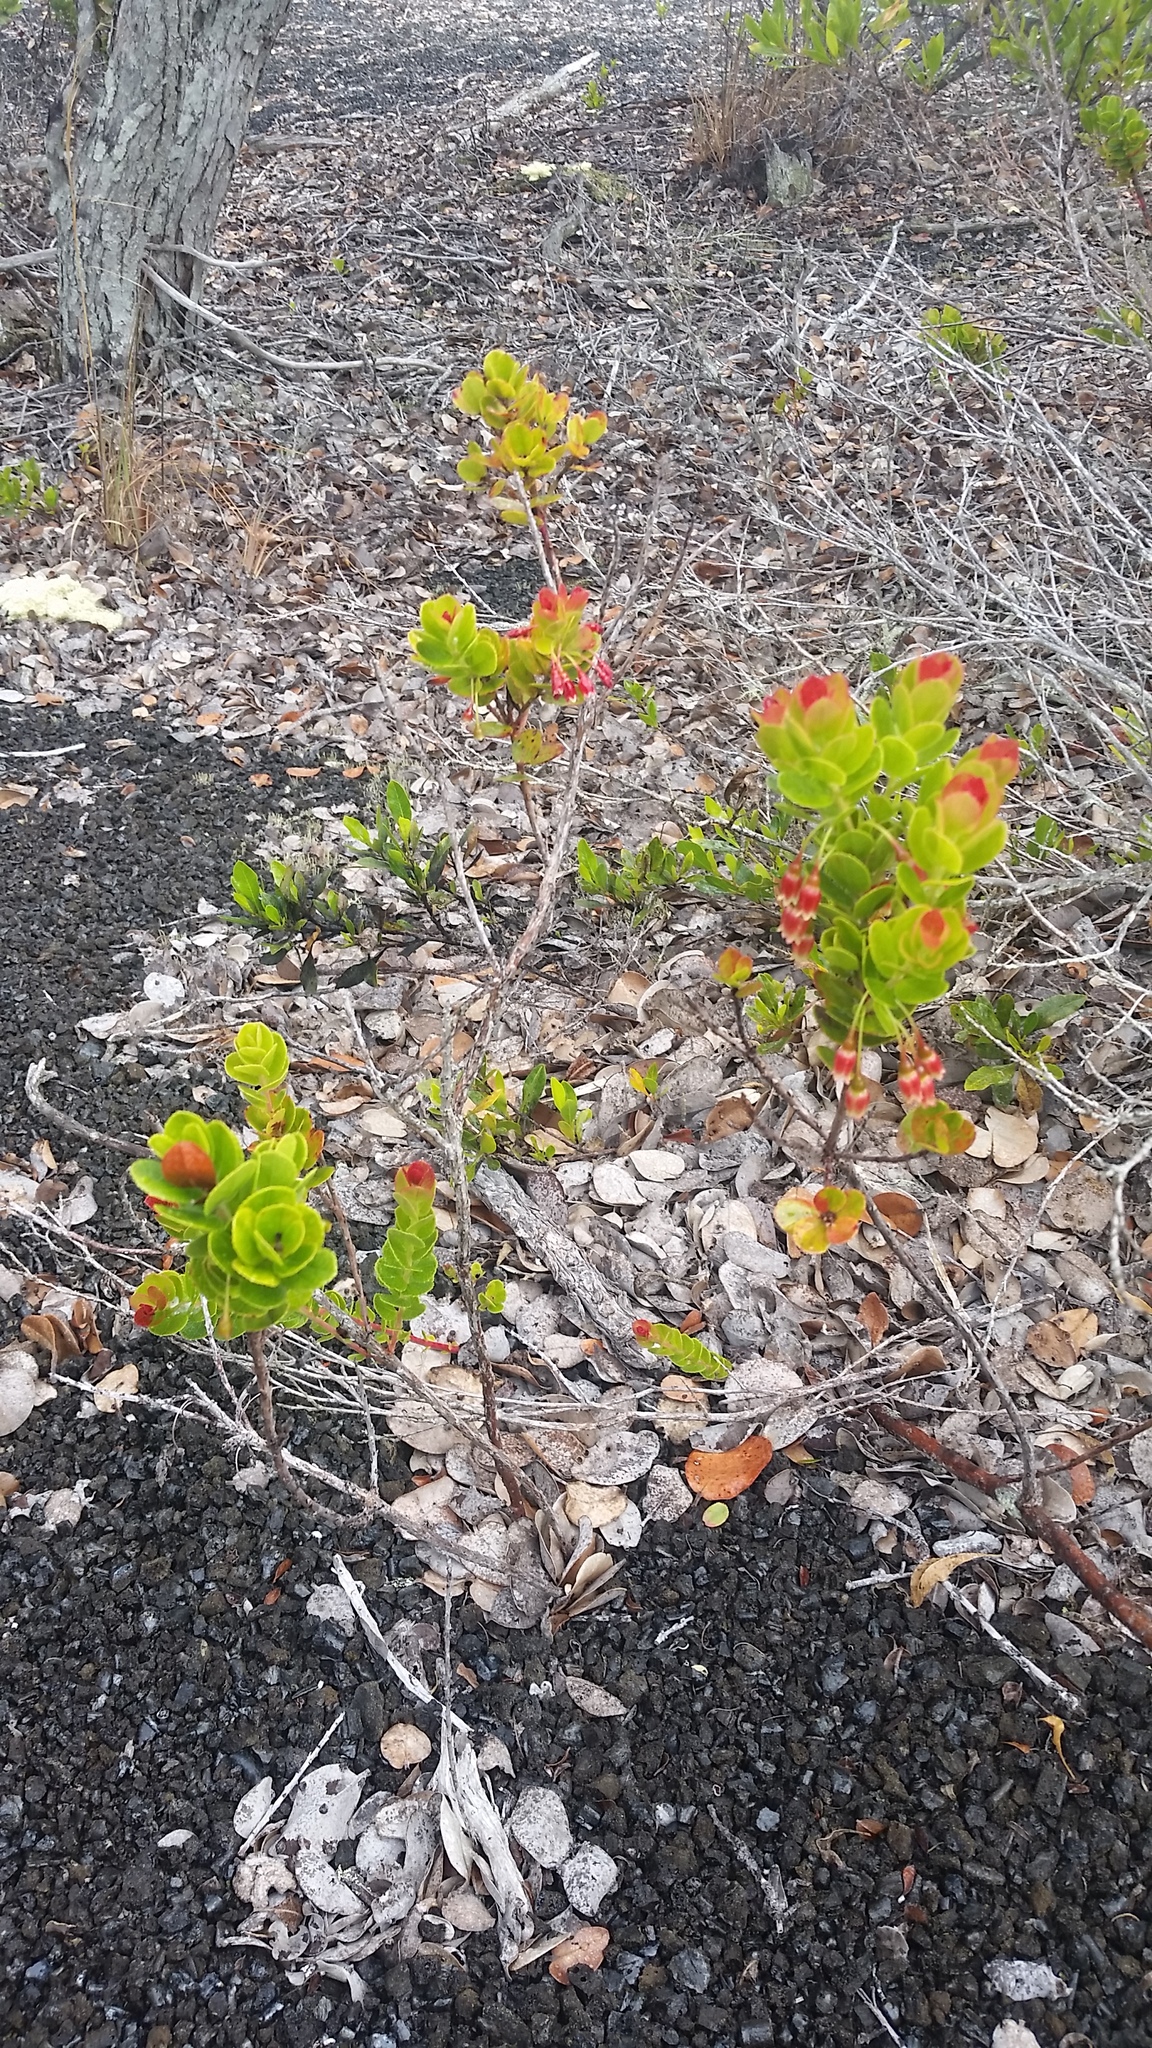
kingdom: Plantae
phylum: Tracheophyta
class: Magnoliopsida
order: Ericales
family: Ericaceae
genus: Vaccinium
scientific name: Vaccinium reticulatum
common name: Ohelo
